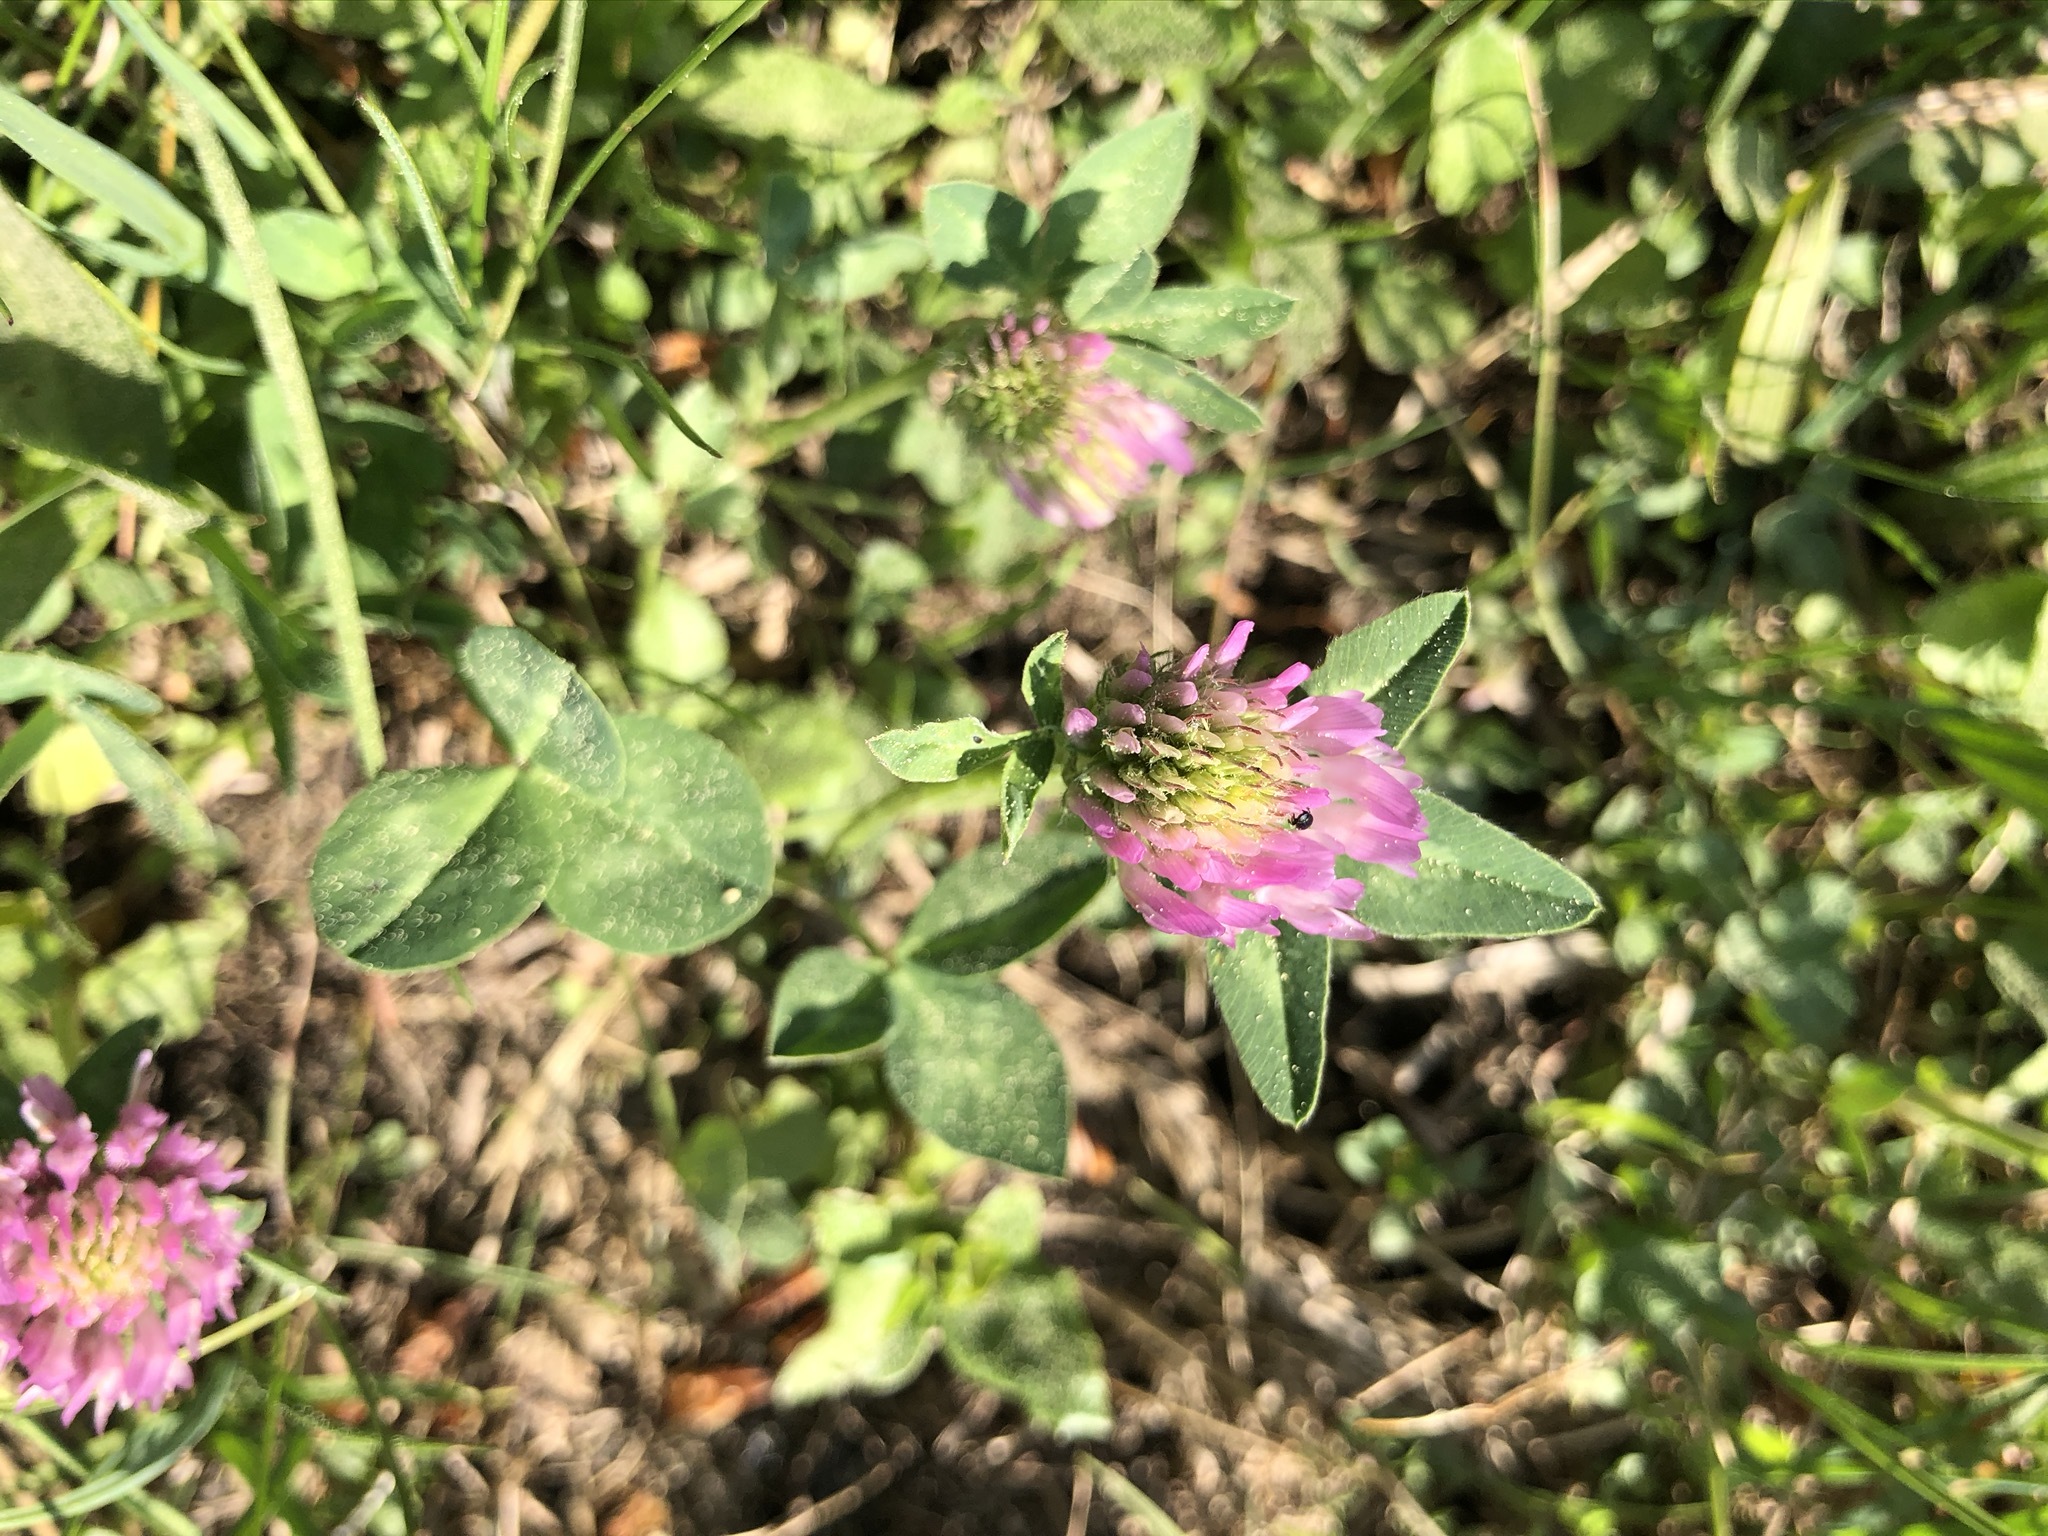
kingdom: Plantae
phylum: Tracheophyta
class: Magnoliopsida
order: Fabales
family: Fabaceae
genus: Trifolium
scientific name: Trifolium pratense
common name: Red clover
